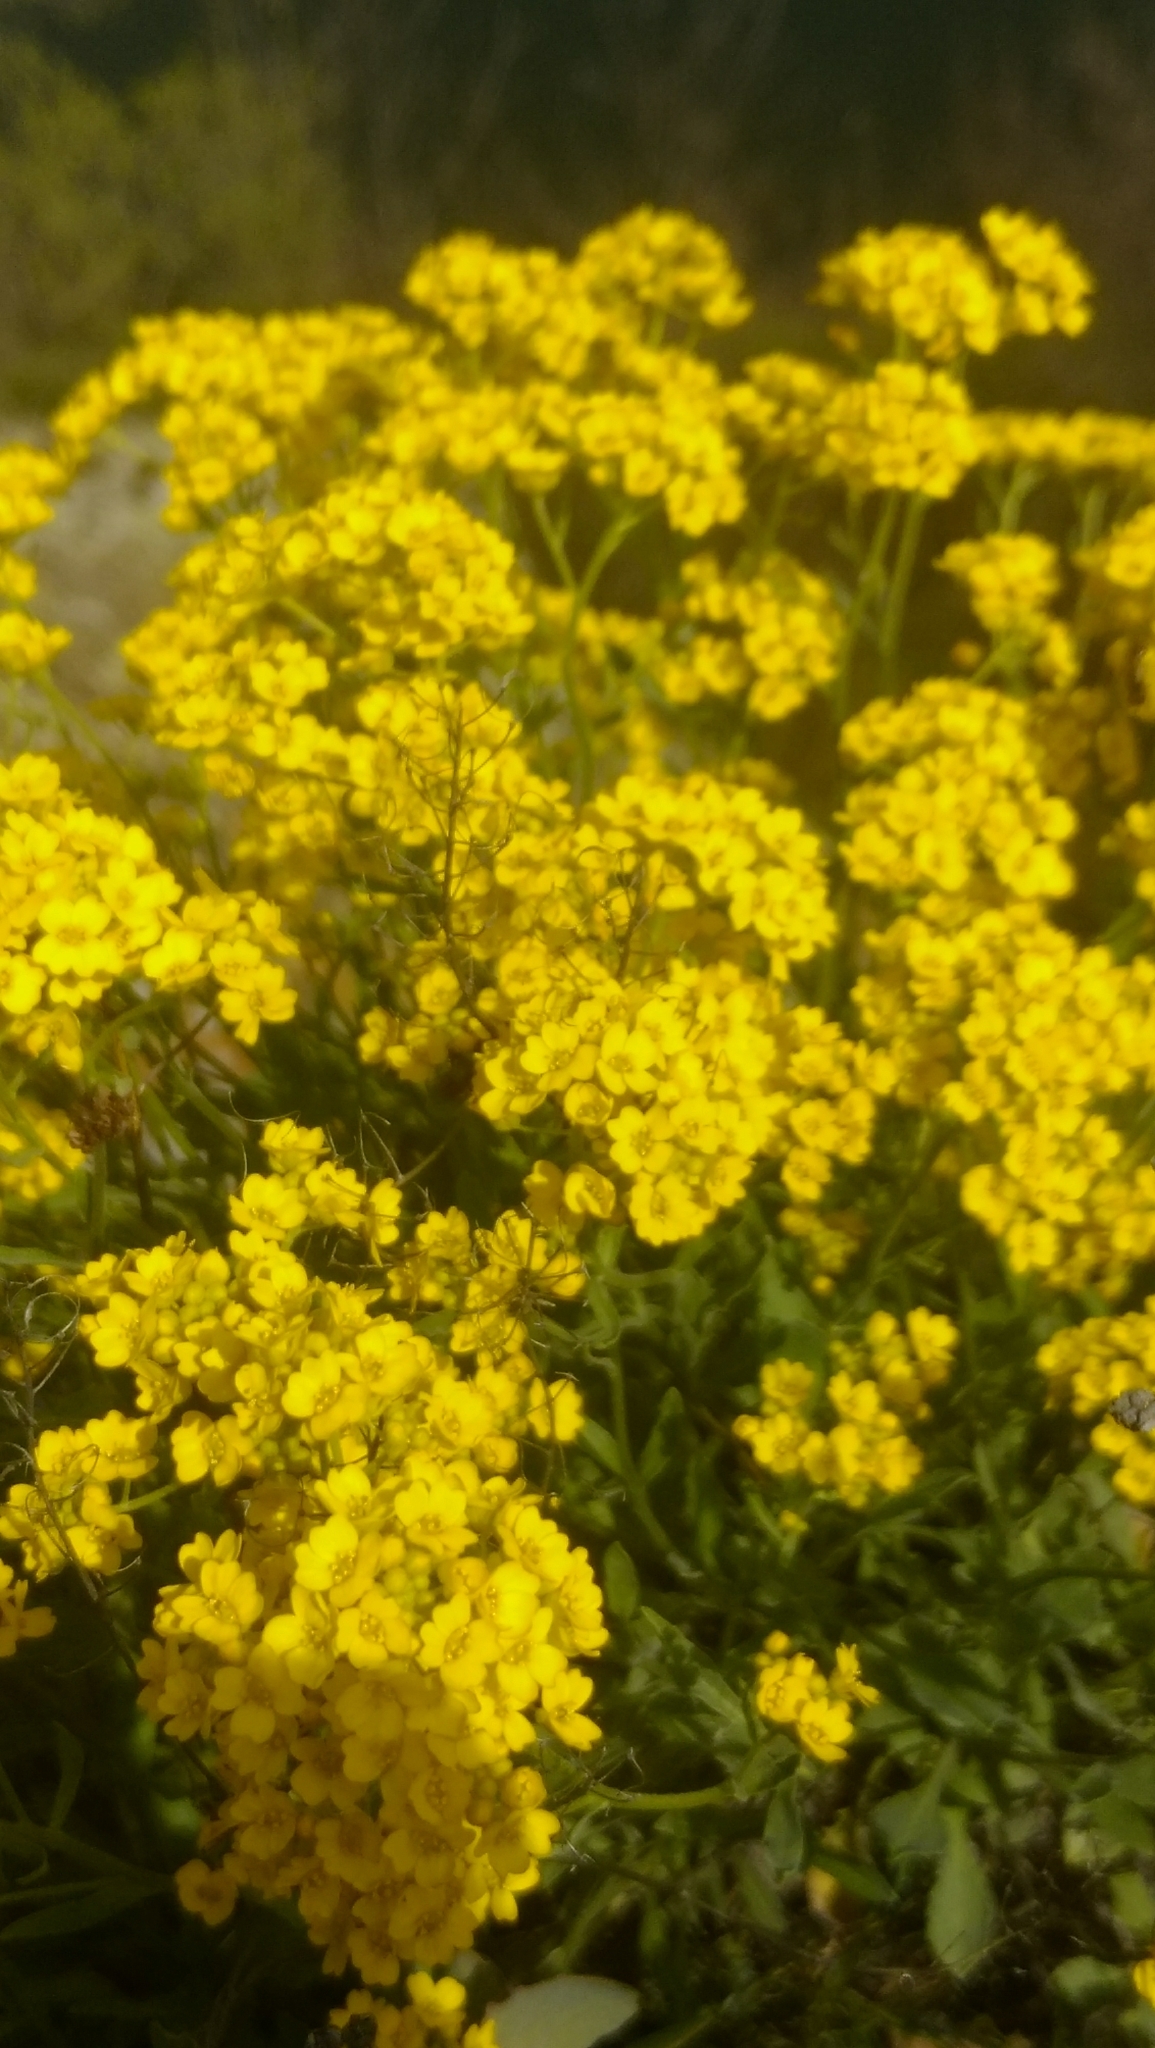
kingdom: Plantae
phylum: Tracheophyta
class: Magnoliopsida
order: Brassicales
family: Brassicaceae
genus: Aurinia
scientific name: Aurinia saxatilis
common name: Golden-tuft alyssum
